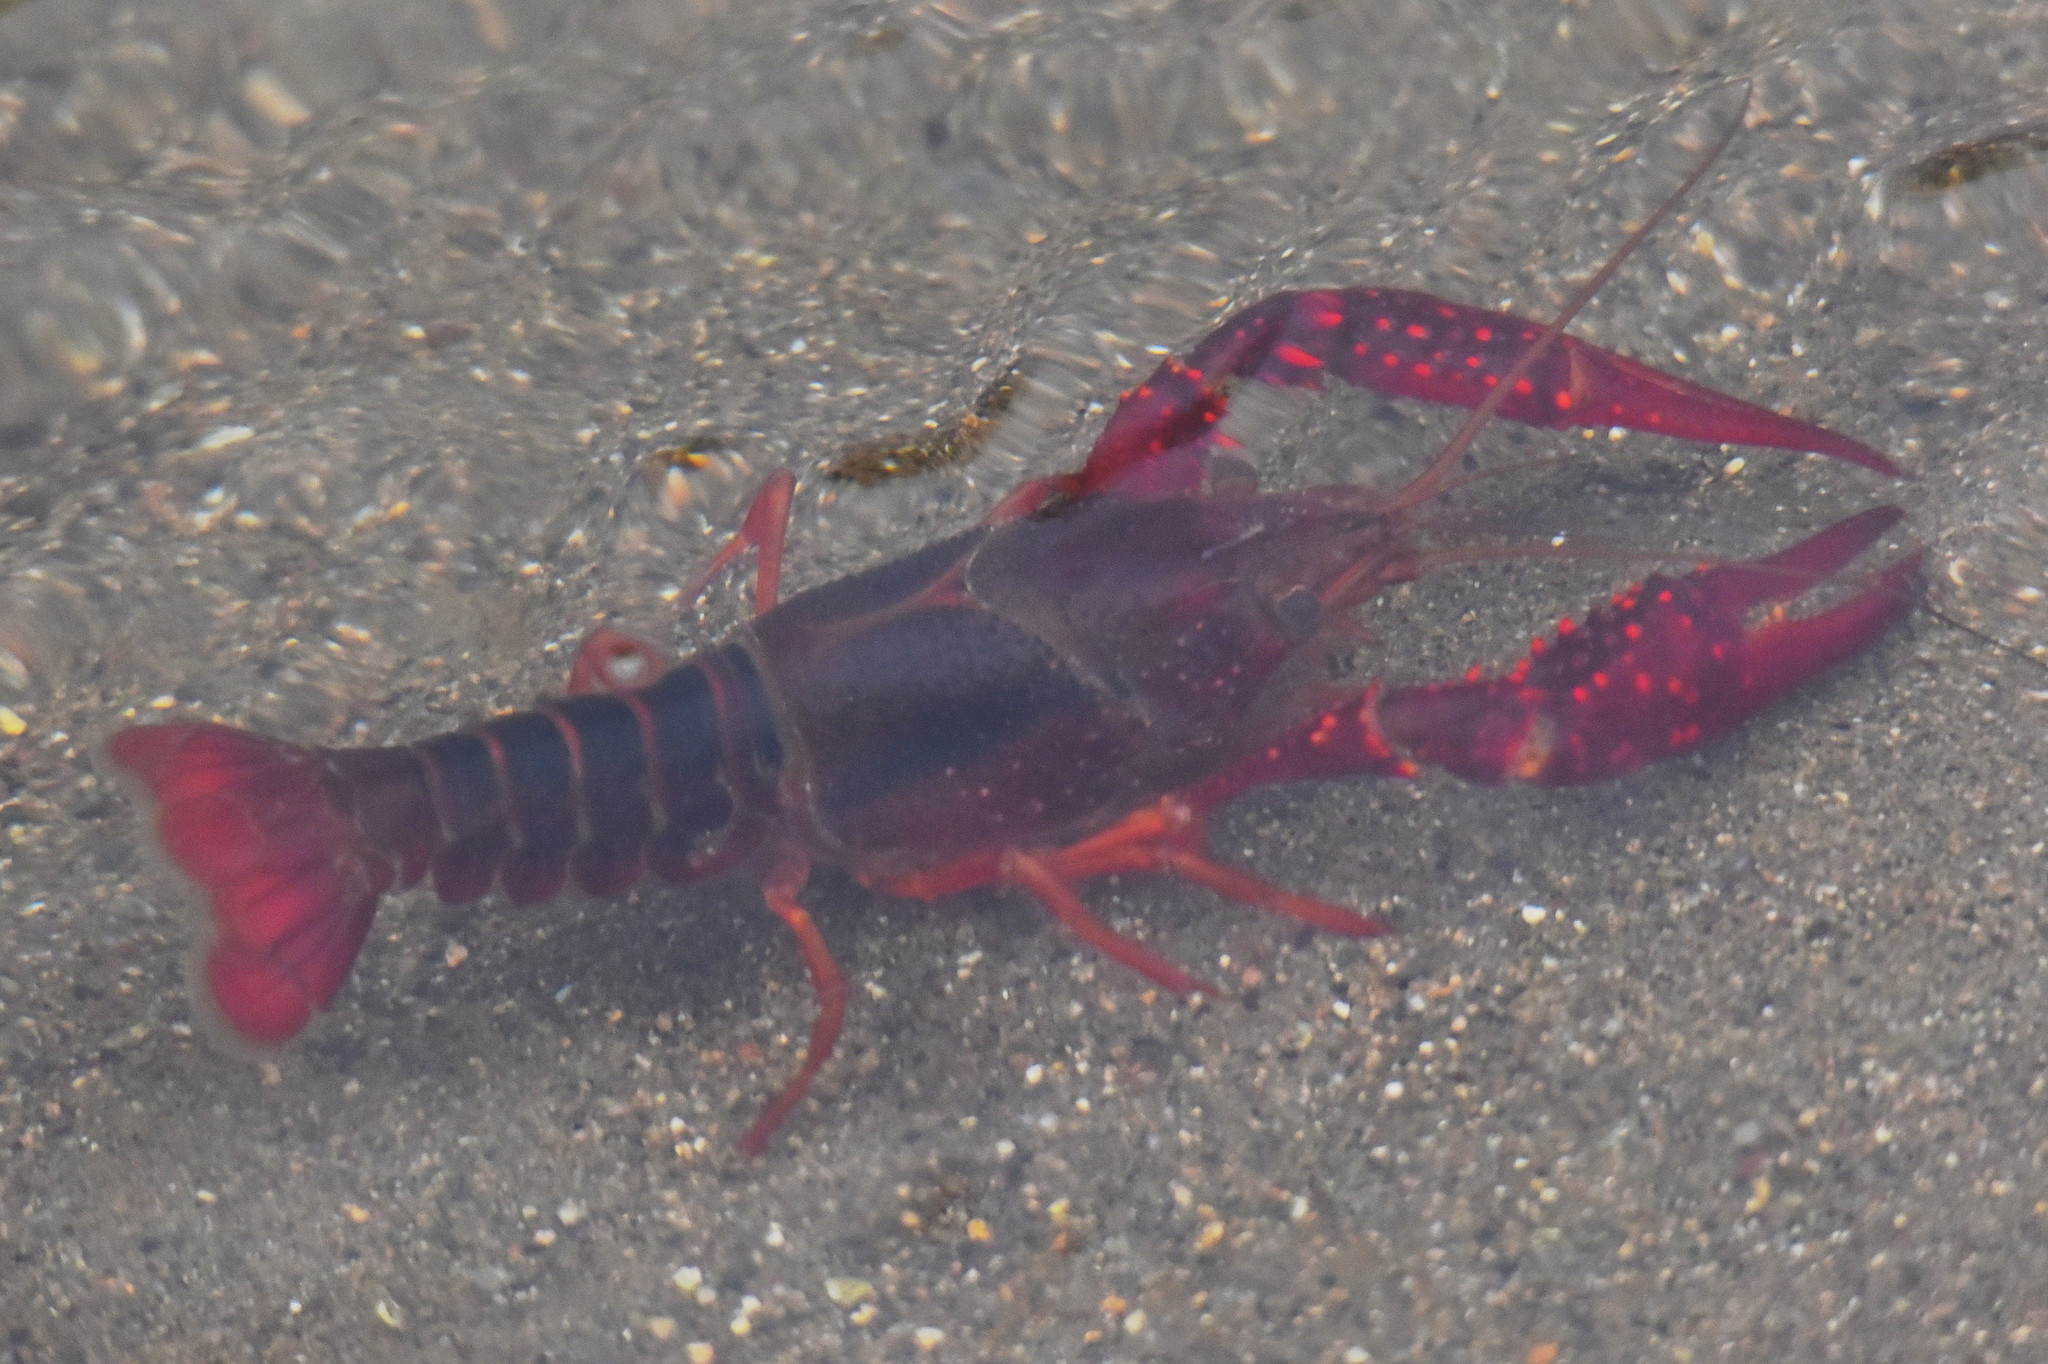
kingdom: Animalia
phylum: Arthropoda
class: Malacostraca
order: Decapoda
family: Cambaridae
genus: Procambarus
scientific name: Procambarus clarkii
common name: Red swamp crayfish
